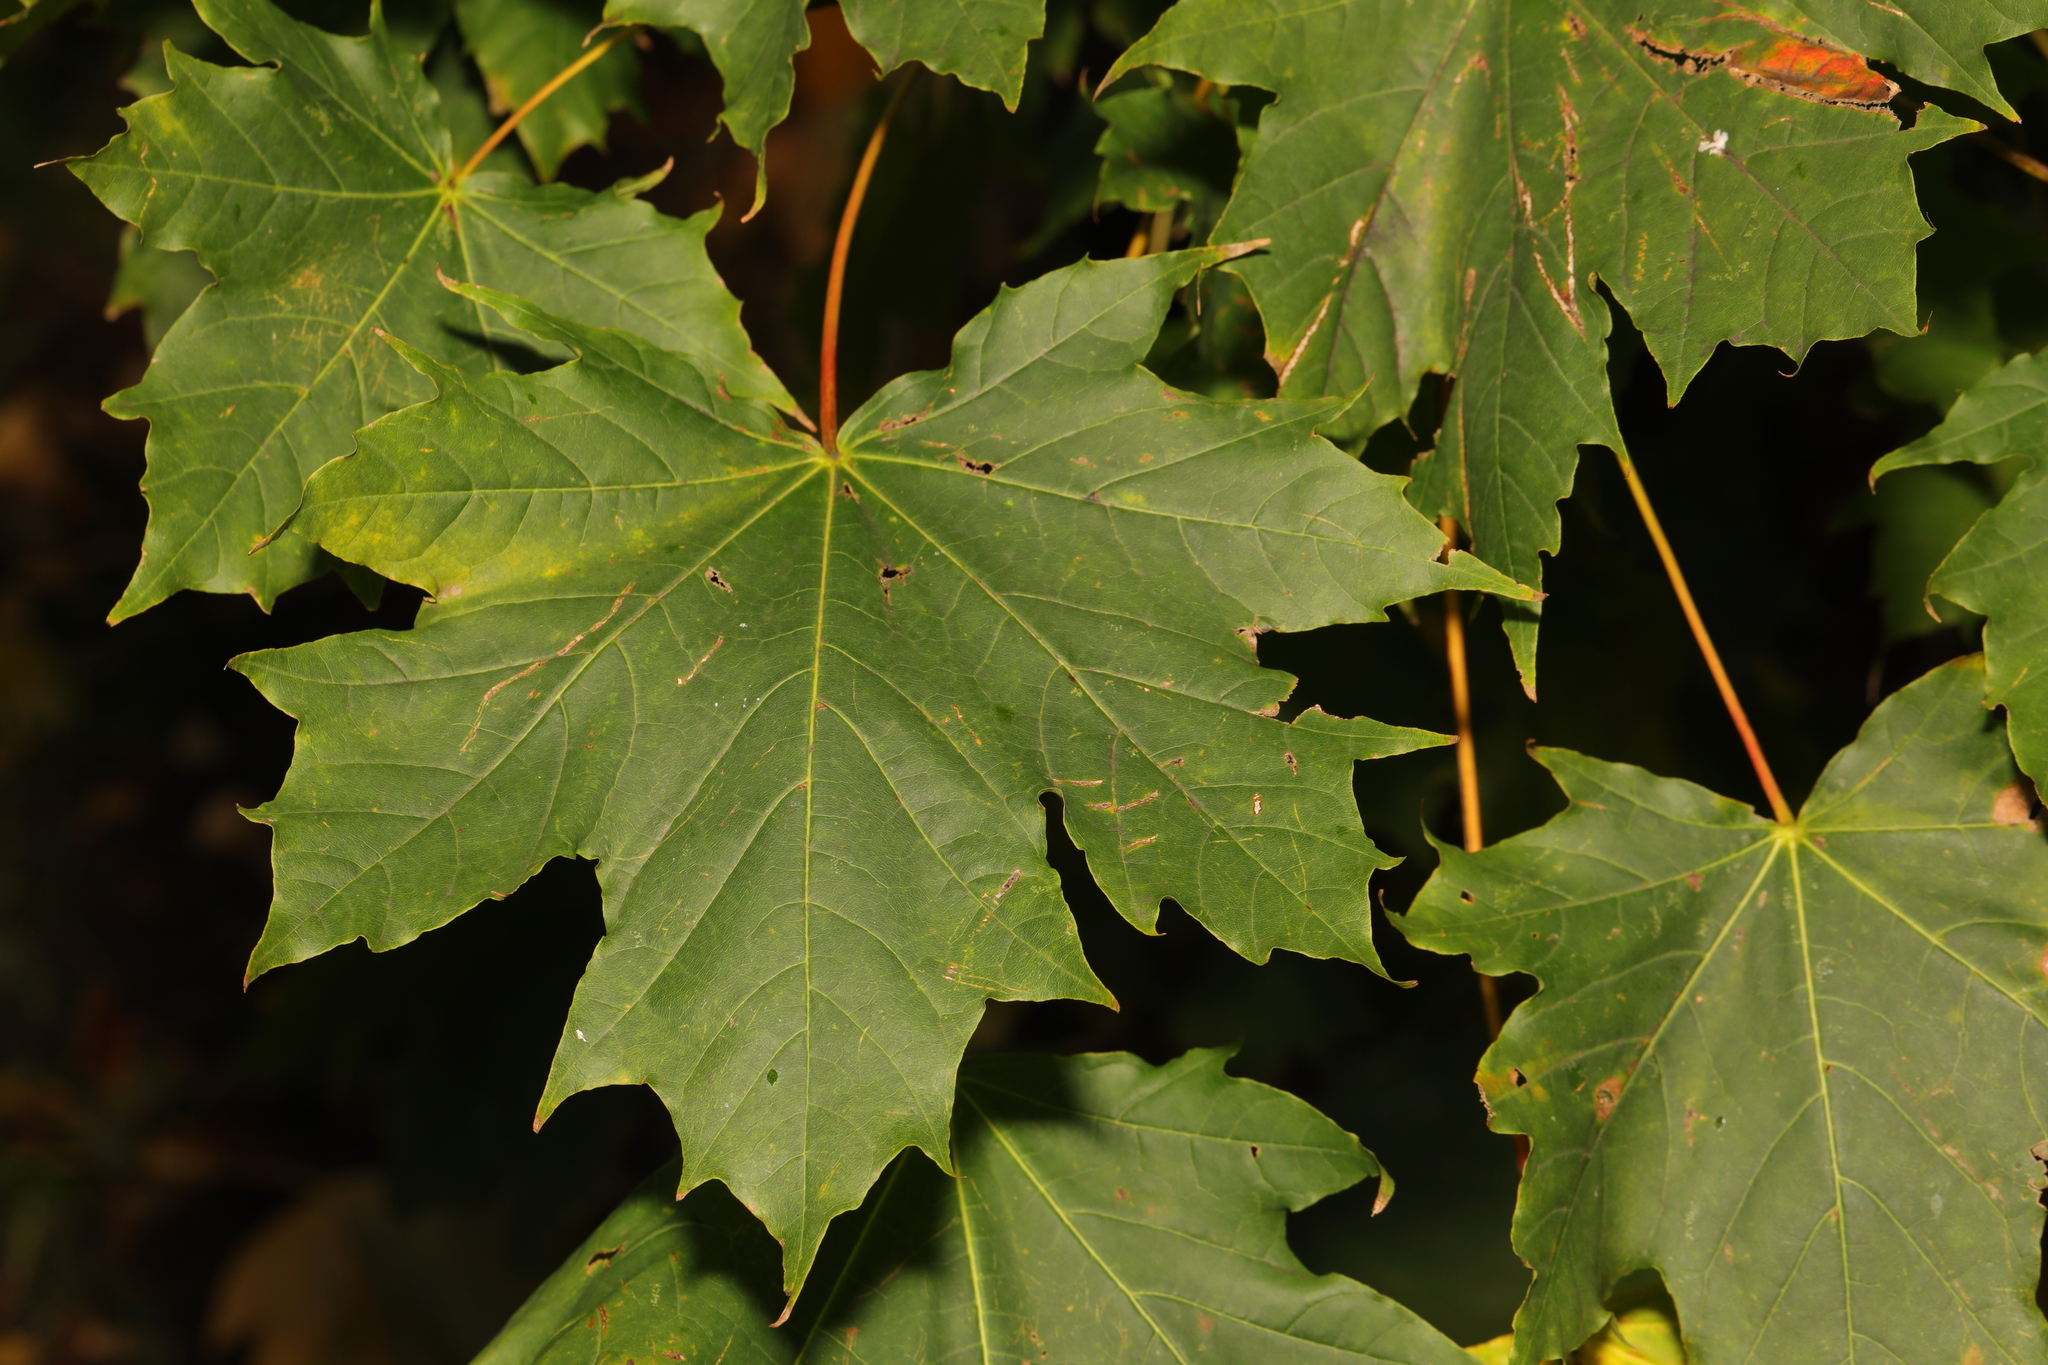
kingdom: Plantae
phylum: Tracheophyta
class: Magnoliopsida
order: Sapindales
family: Sapindaceae
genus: Acer
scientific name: Acer platanoides
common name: Norway maple
